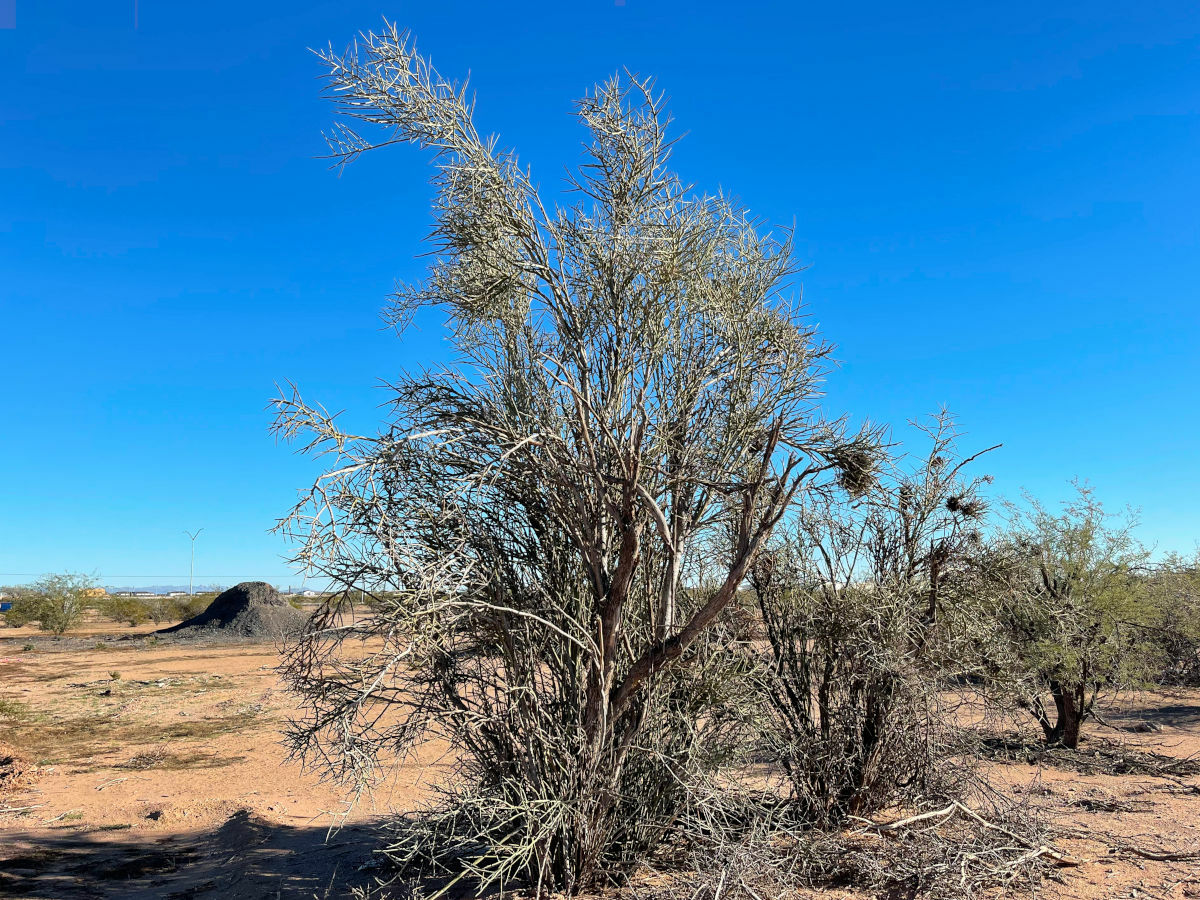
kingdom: Plantae
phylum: Tracheophyta
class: Magnoliopsida
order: Sapindales
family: Simaroubaceae
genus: Holacantha
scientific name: Holacantha emoryi
